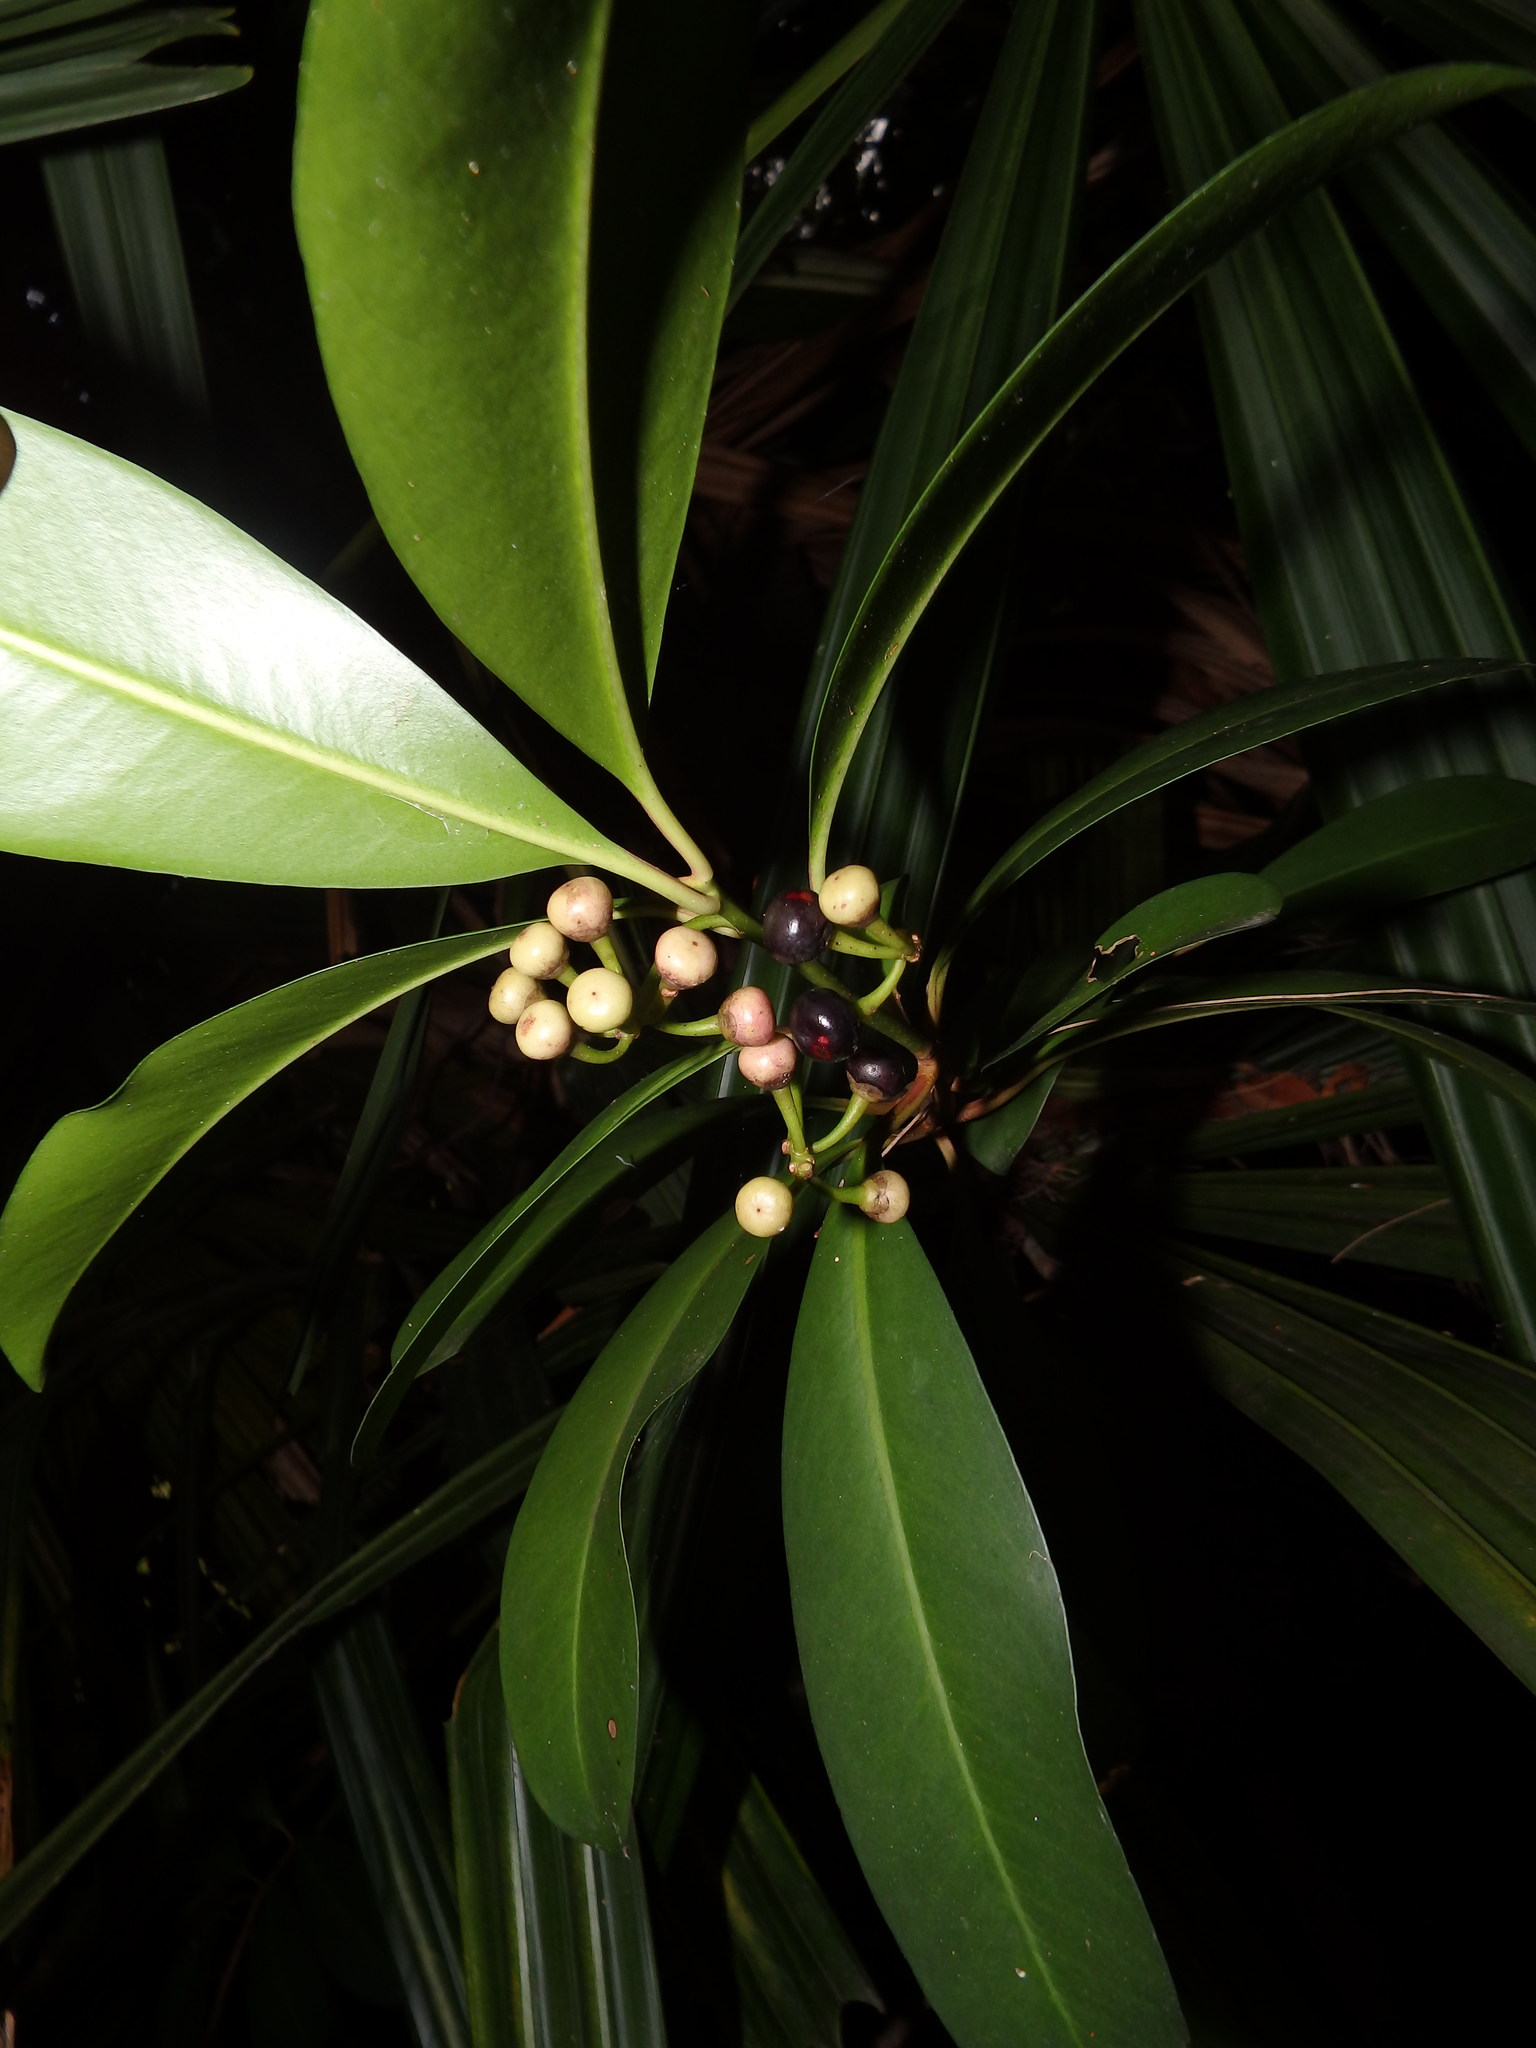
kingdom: Plantae
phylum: Tracheophyta
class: Magnoliopsida
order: Ericales
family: Primulaceae
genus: Ardisia
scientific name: Ardisia elliptica
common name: Shoebutton
